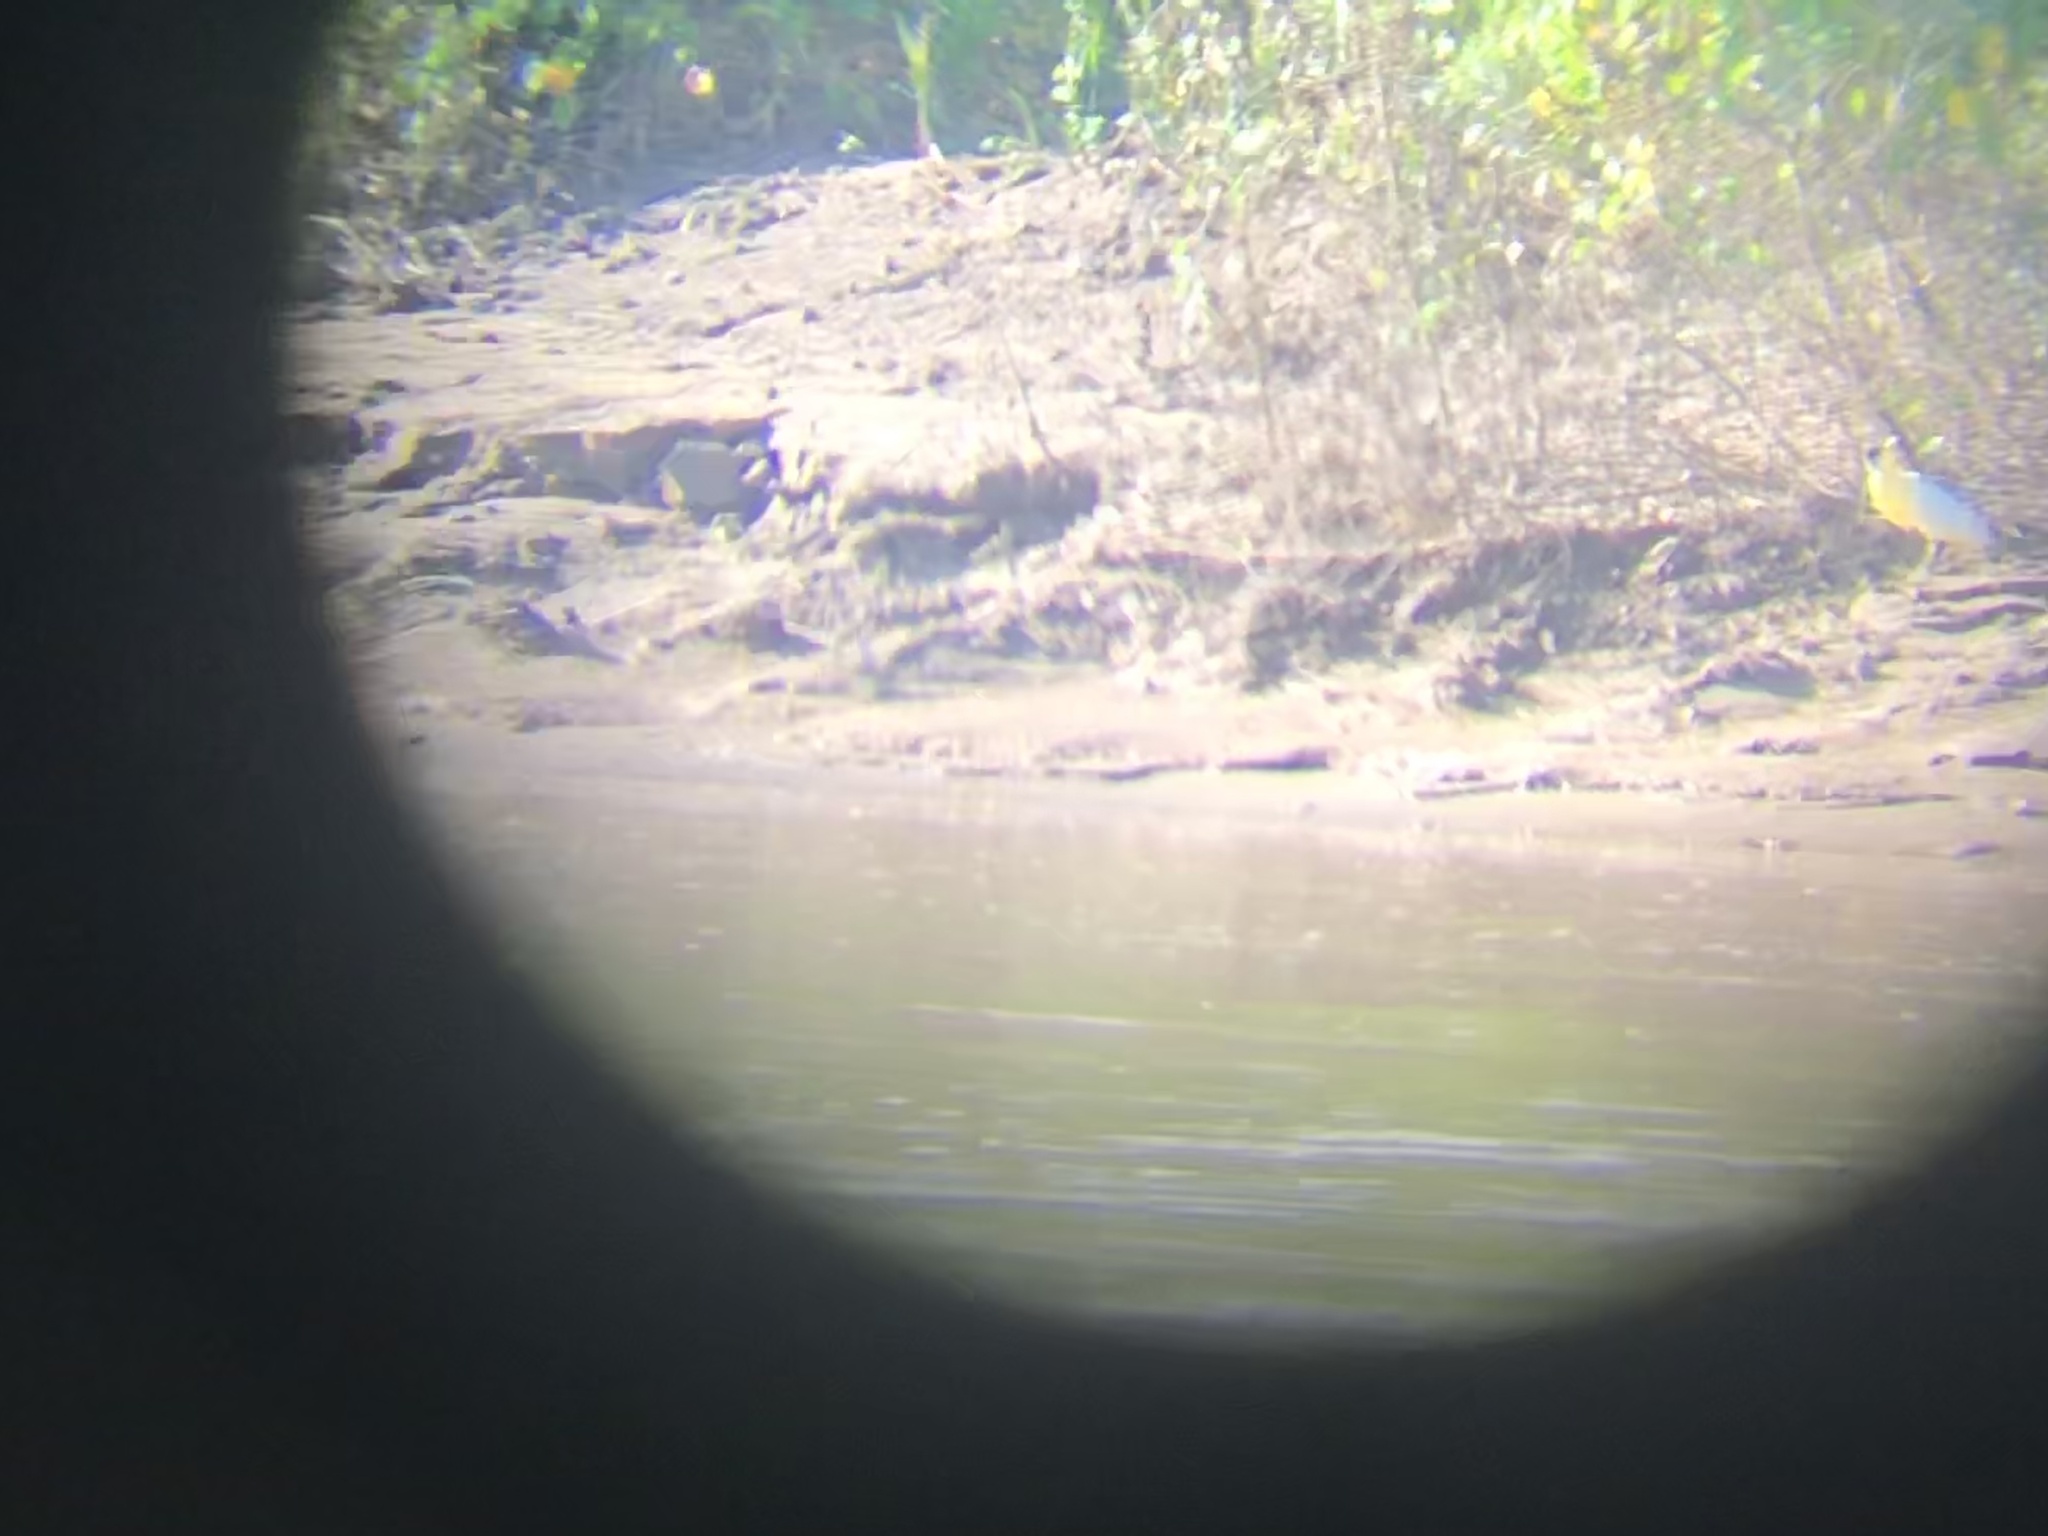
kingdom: Animalia
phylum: Chordata
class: Aves
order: Pelecaniformes
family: Ardeidae
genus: Pilherodius
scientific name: Pilherodius pileatus
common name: Capped heron
